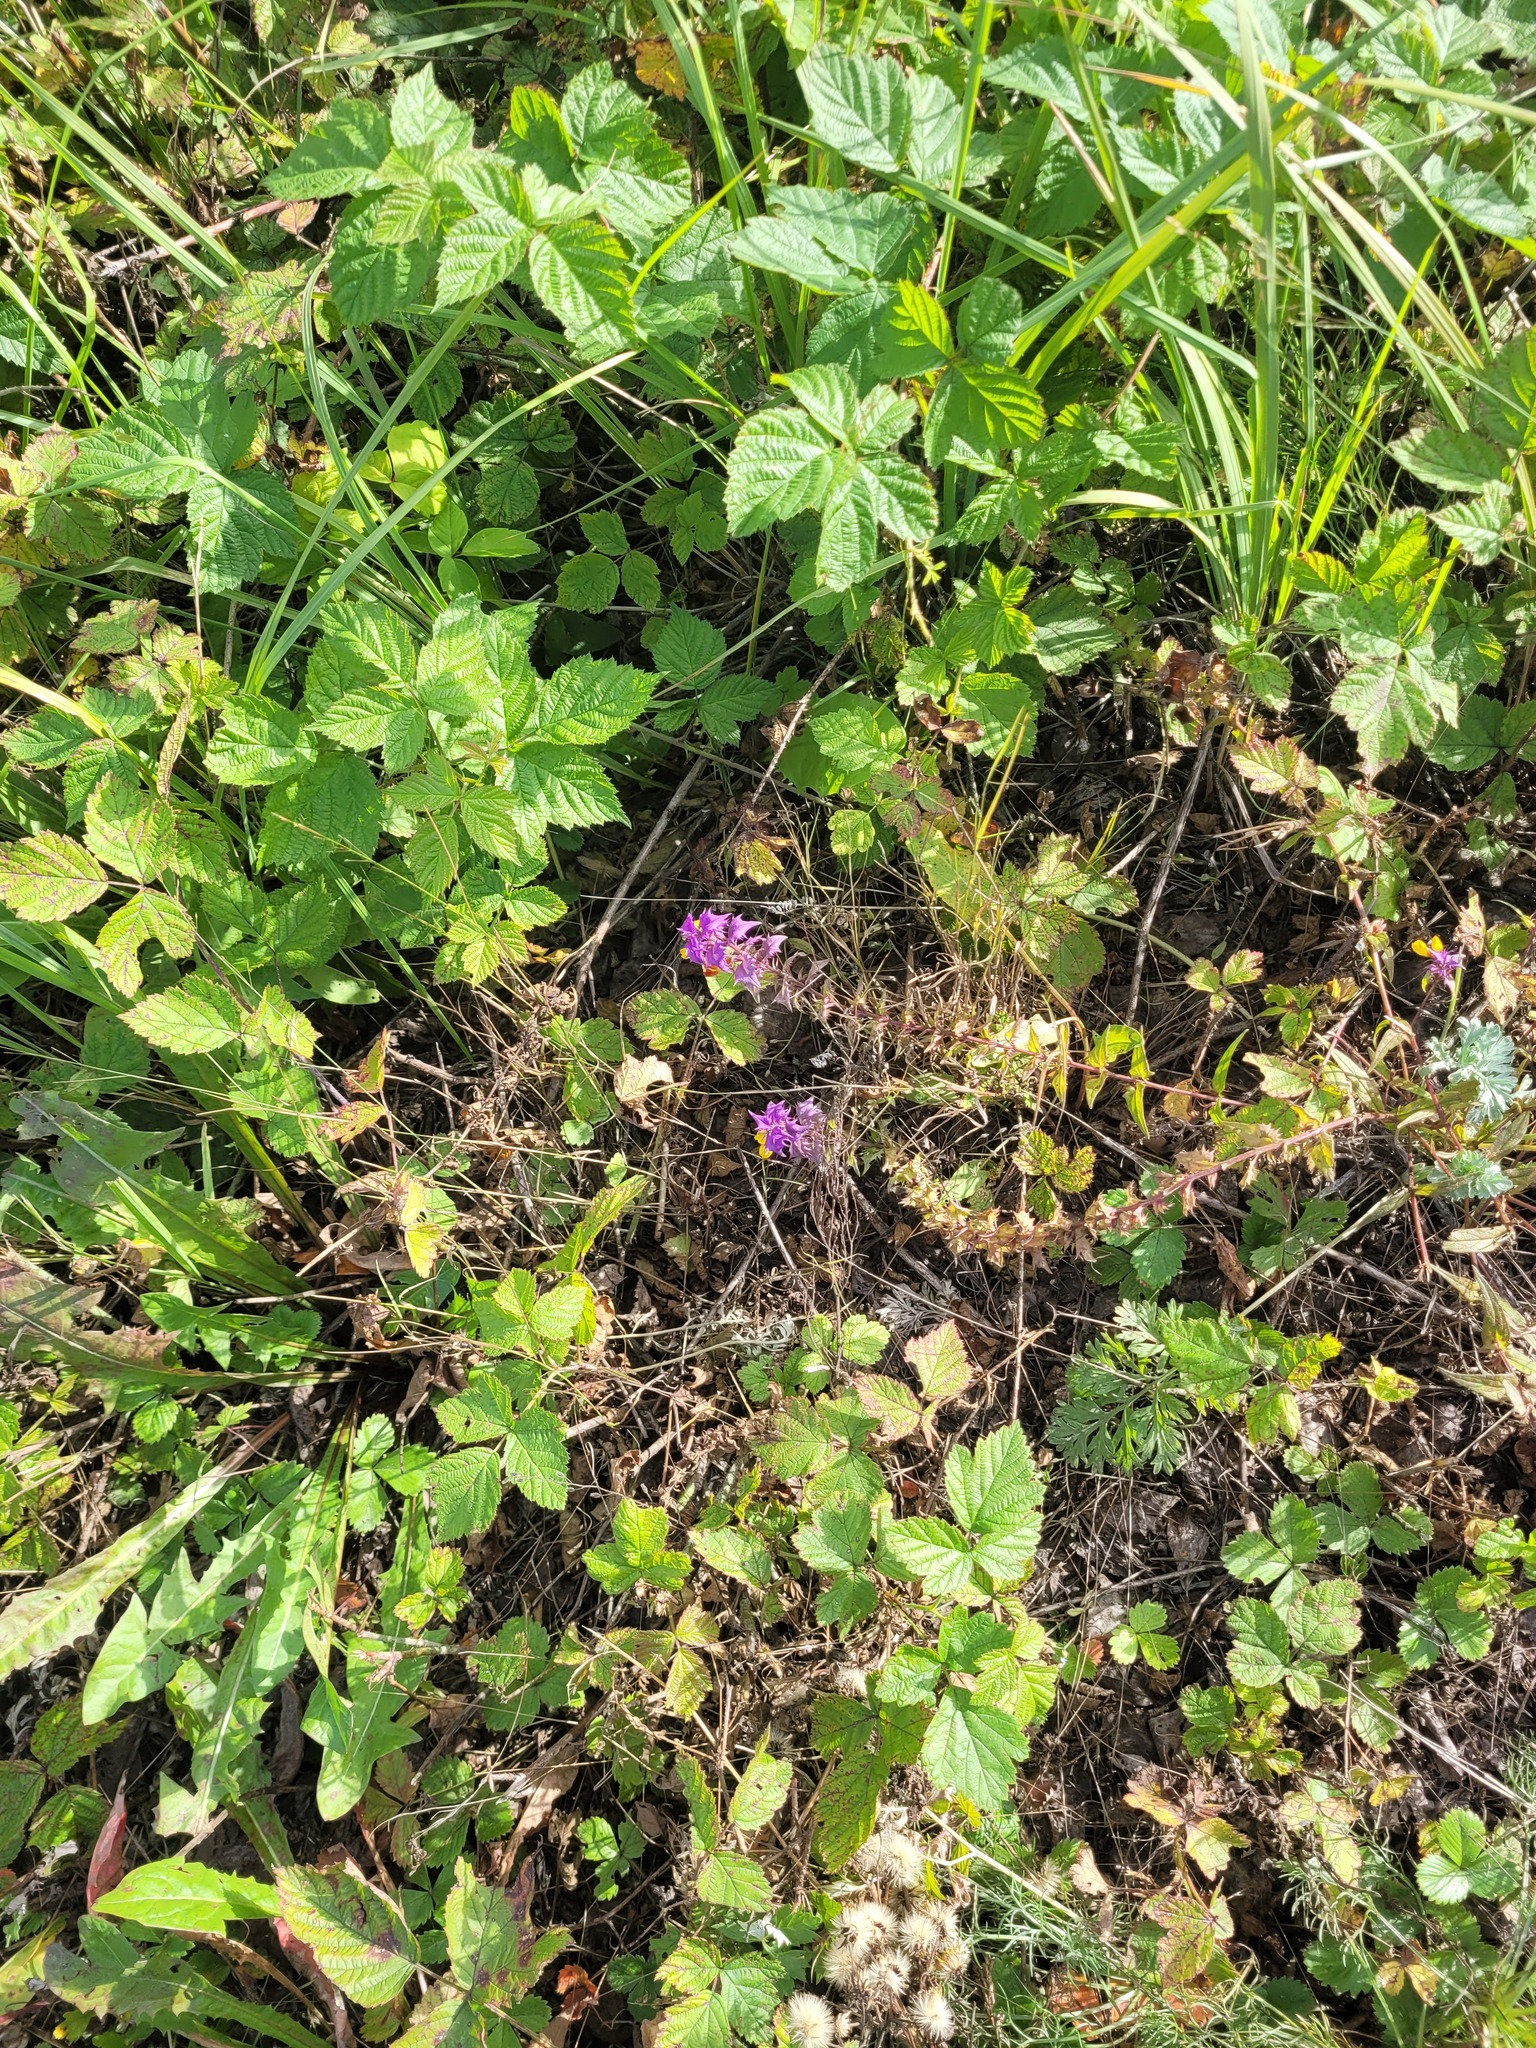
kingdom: Plantae
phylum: Tracheophyta
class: Magnoliopsida
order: Lamiales
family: Orobanchaceae
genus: Melampyrum
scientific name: Melampyrum nemorosum
